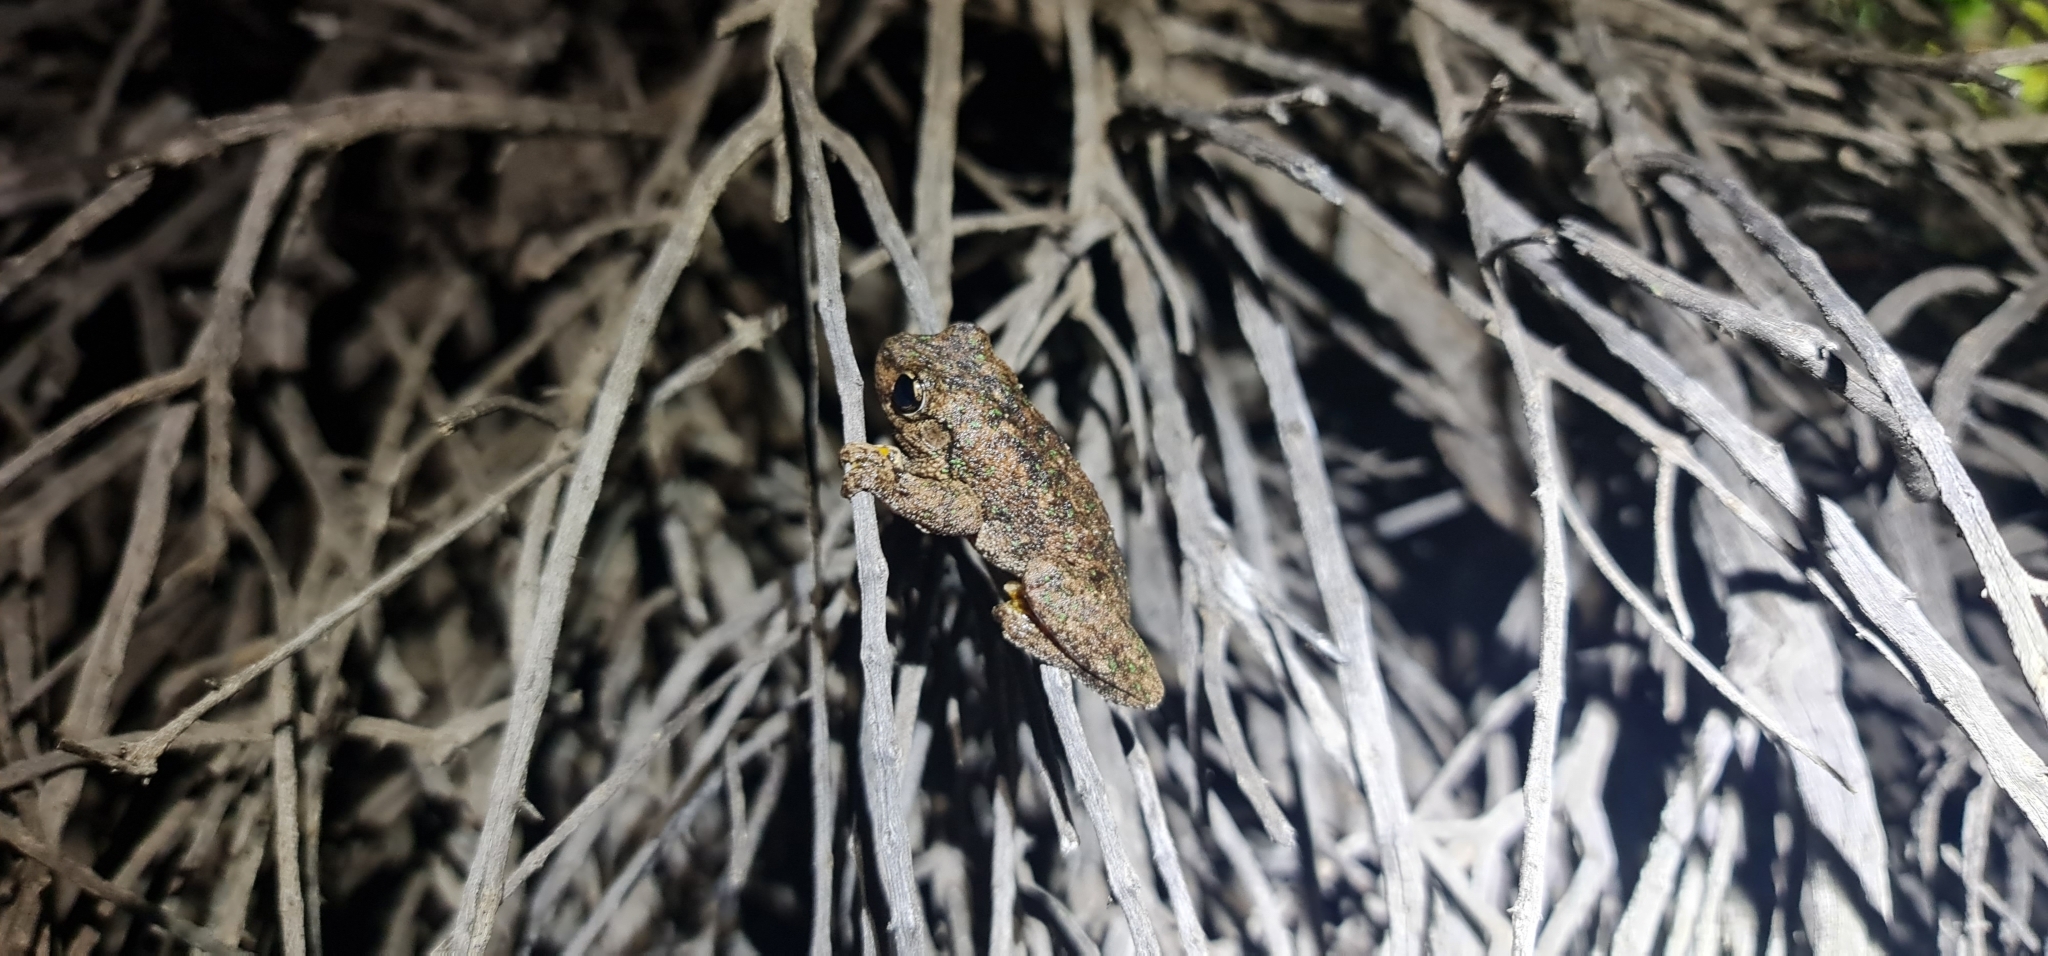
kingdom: Animalia
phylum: Chordata
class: Amphibia
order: Anura
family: Pelodryadidae
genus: Litoria
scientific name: Litoria peronii
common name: Emerald spotted treefrog
